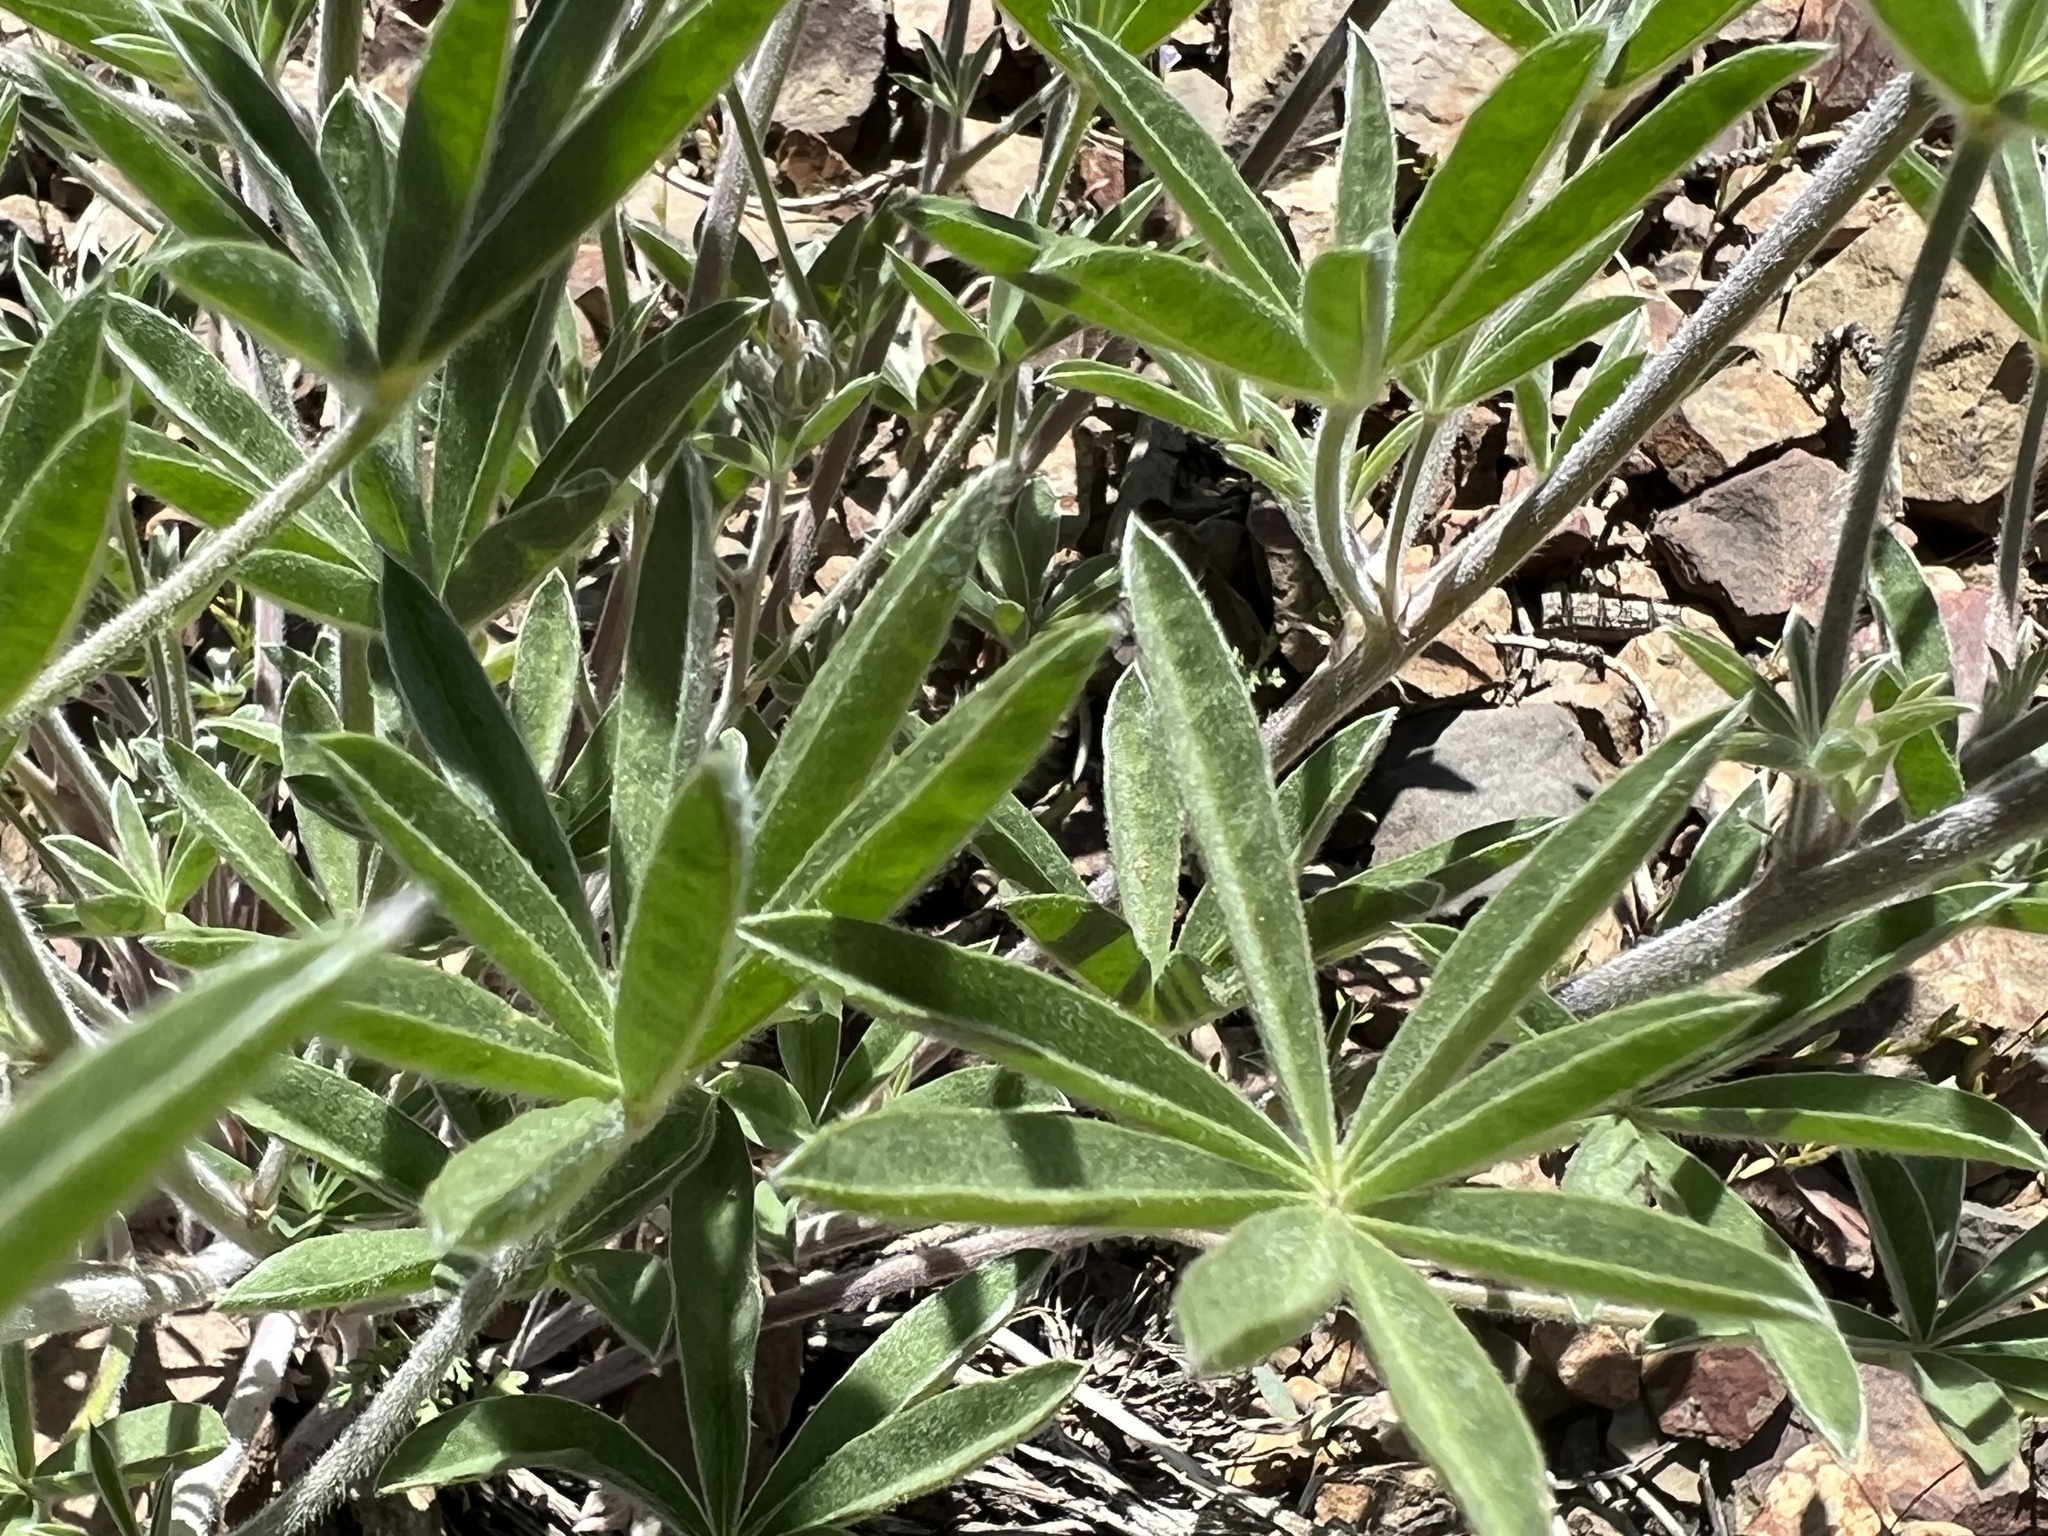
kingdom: Plantae
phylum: Tracheophyta
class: Magnoliopsida
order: Fabales
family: Fabaceae
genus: Lupinus
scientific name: Lupinus argenteus
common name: Silvery lupine
